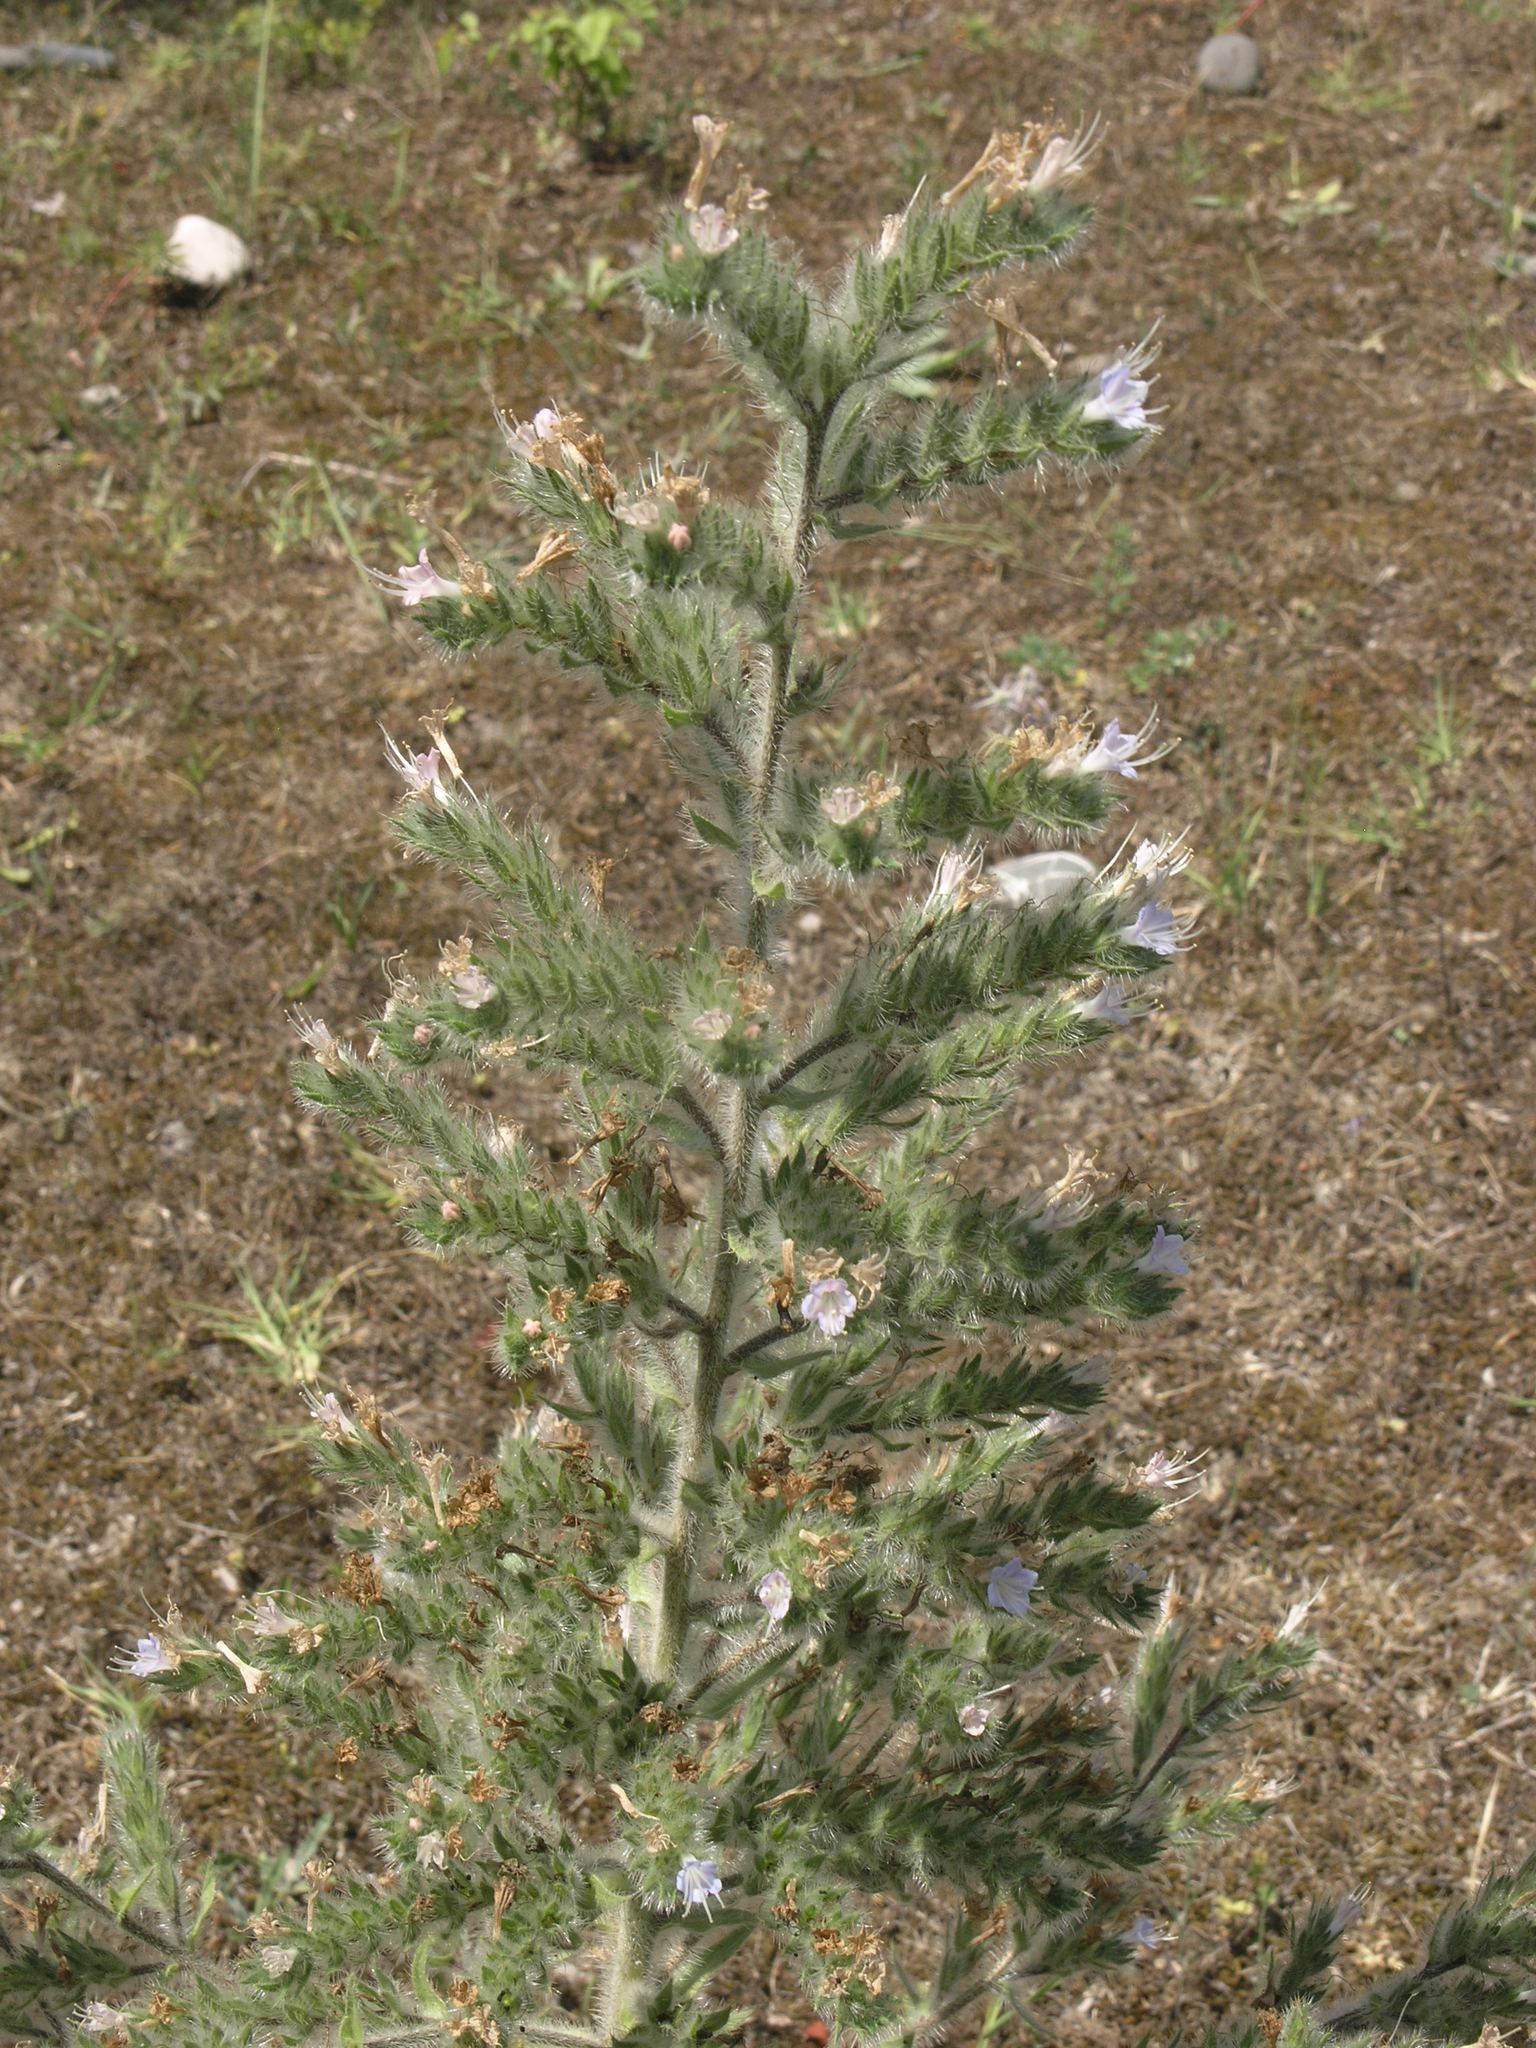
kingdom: Plantae
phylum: Tracheophyta
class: Magnoliopsida
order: Boraginales
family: Boraginaceae
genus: Echium
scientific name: Echium italicum
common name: Italian viper's bugloss
